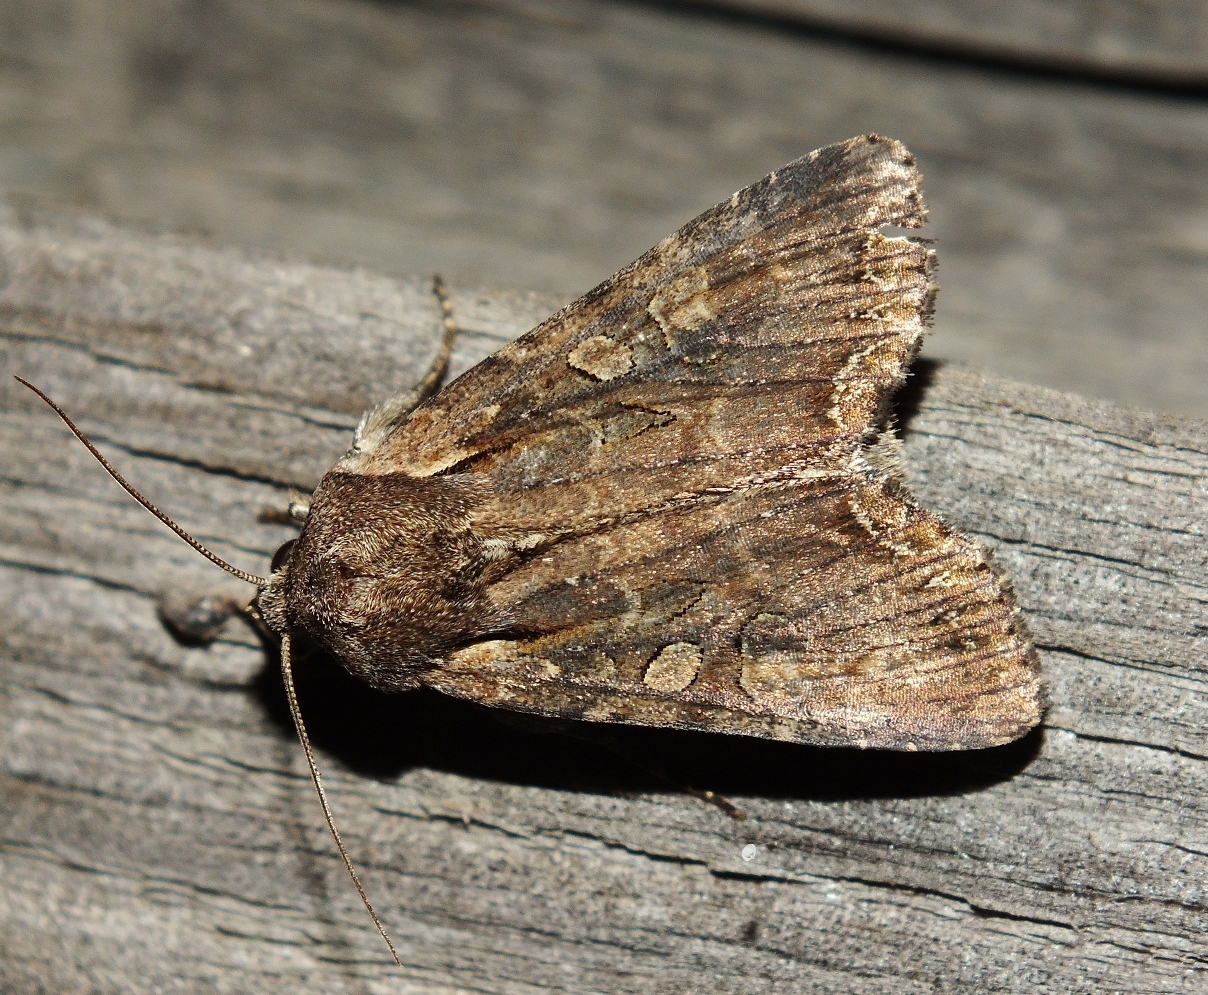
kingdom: Animalia
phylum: Arthropoda
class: Insecta
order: Lepidoptera
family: Noctuidae
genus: Lacanobia
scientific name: Lacanobia suasa
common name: Dog's tooth
